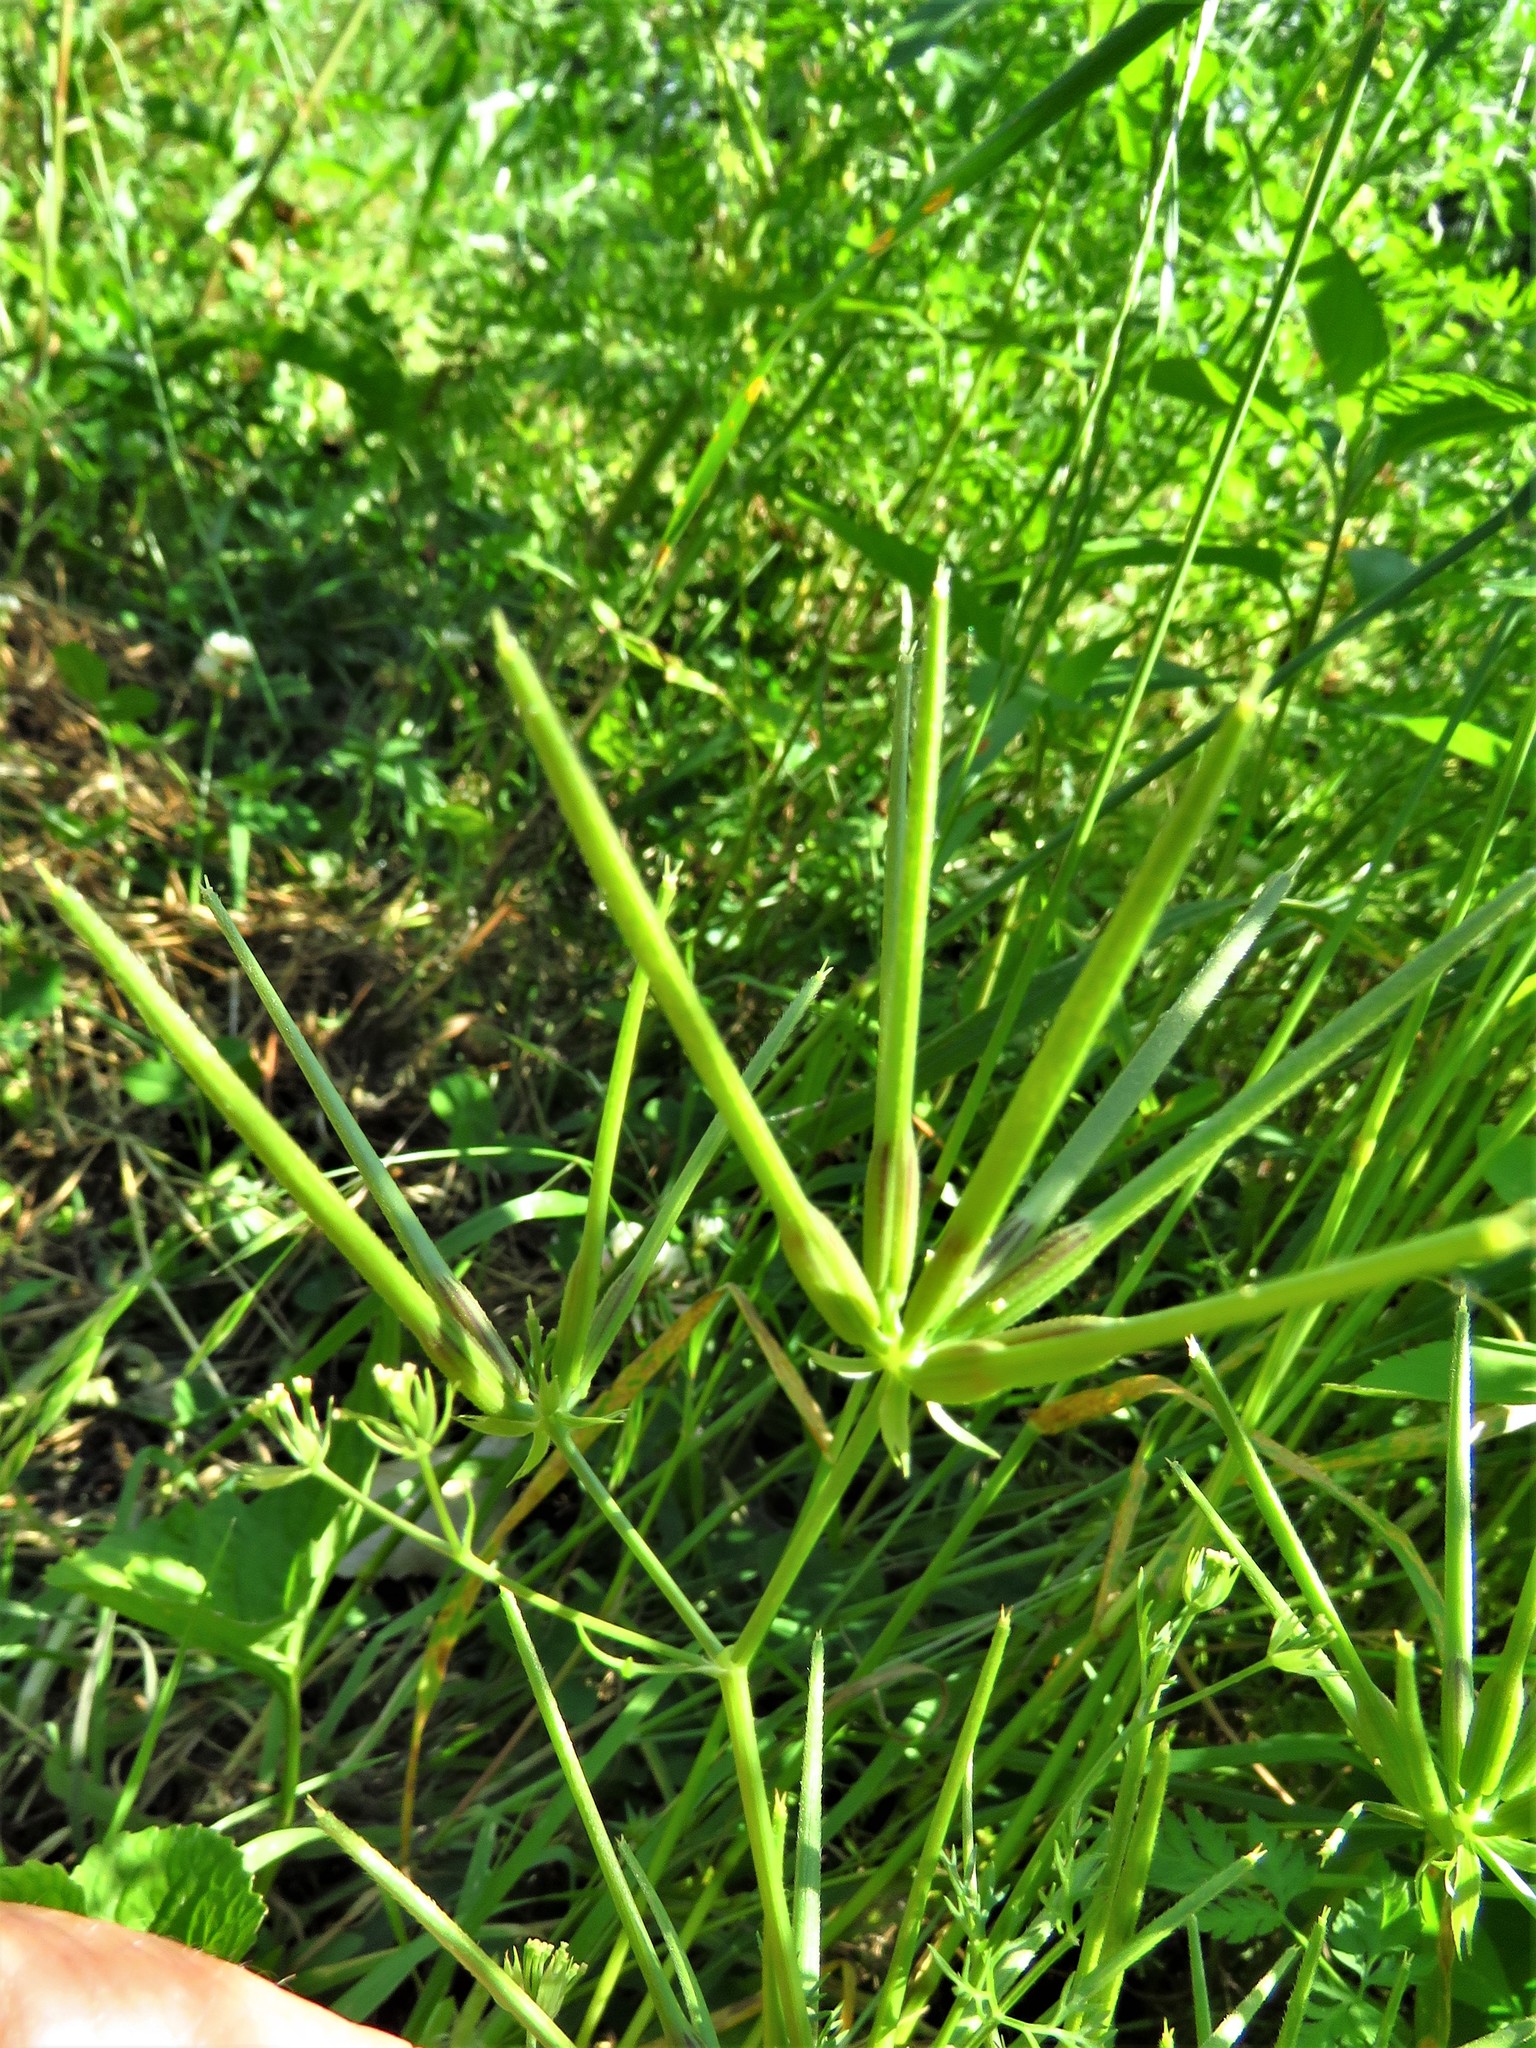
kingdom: Plantae
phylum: Tracheophyta
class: Magnoliopsida
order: Apiales
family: Apiaceae
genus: Scandix
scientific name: Scandix pecten-veneris
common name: Shepherd's-needle
